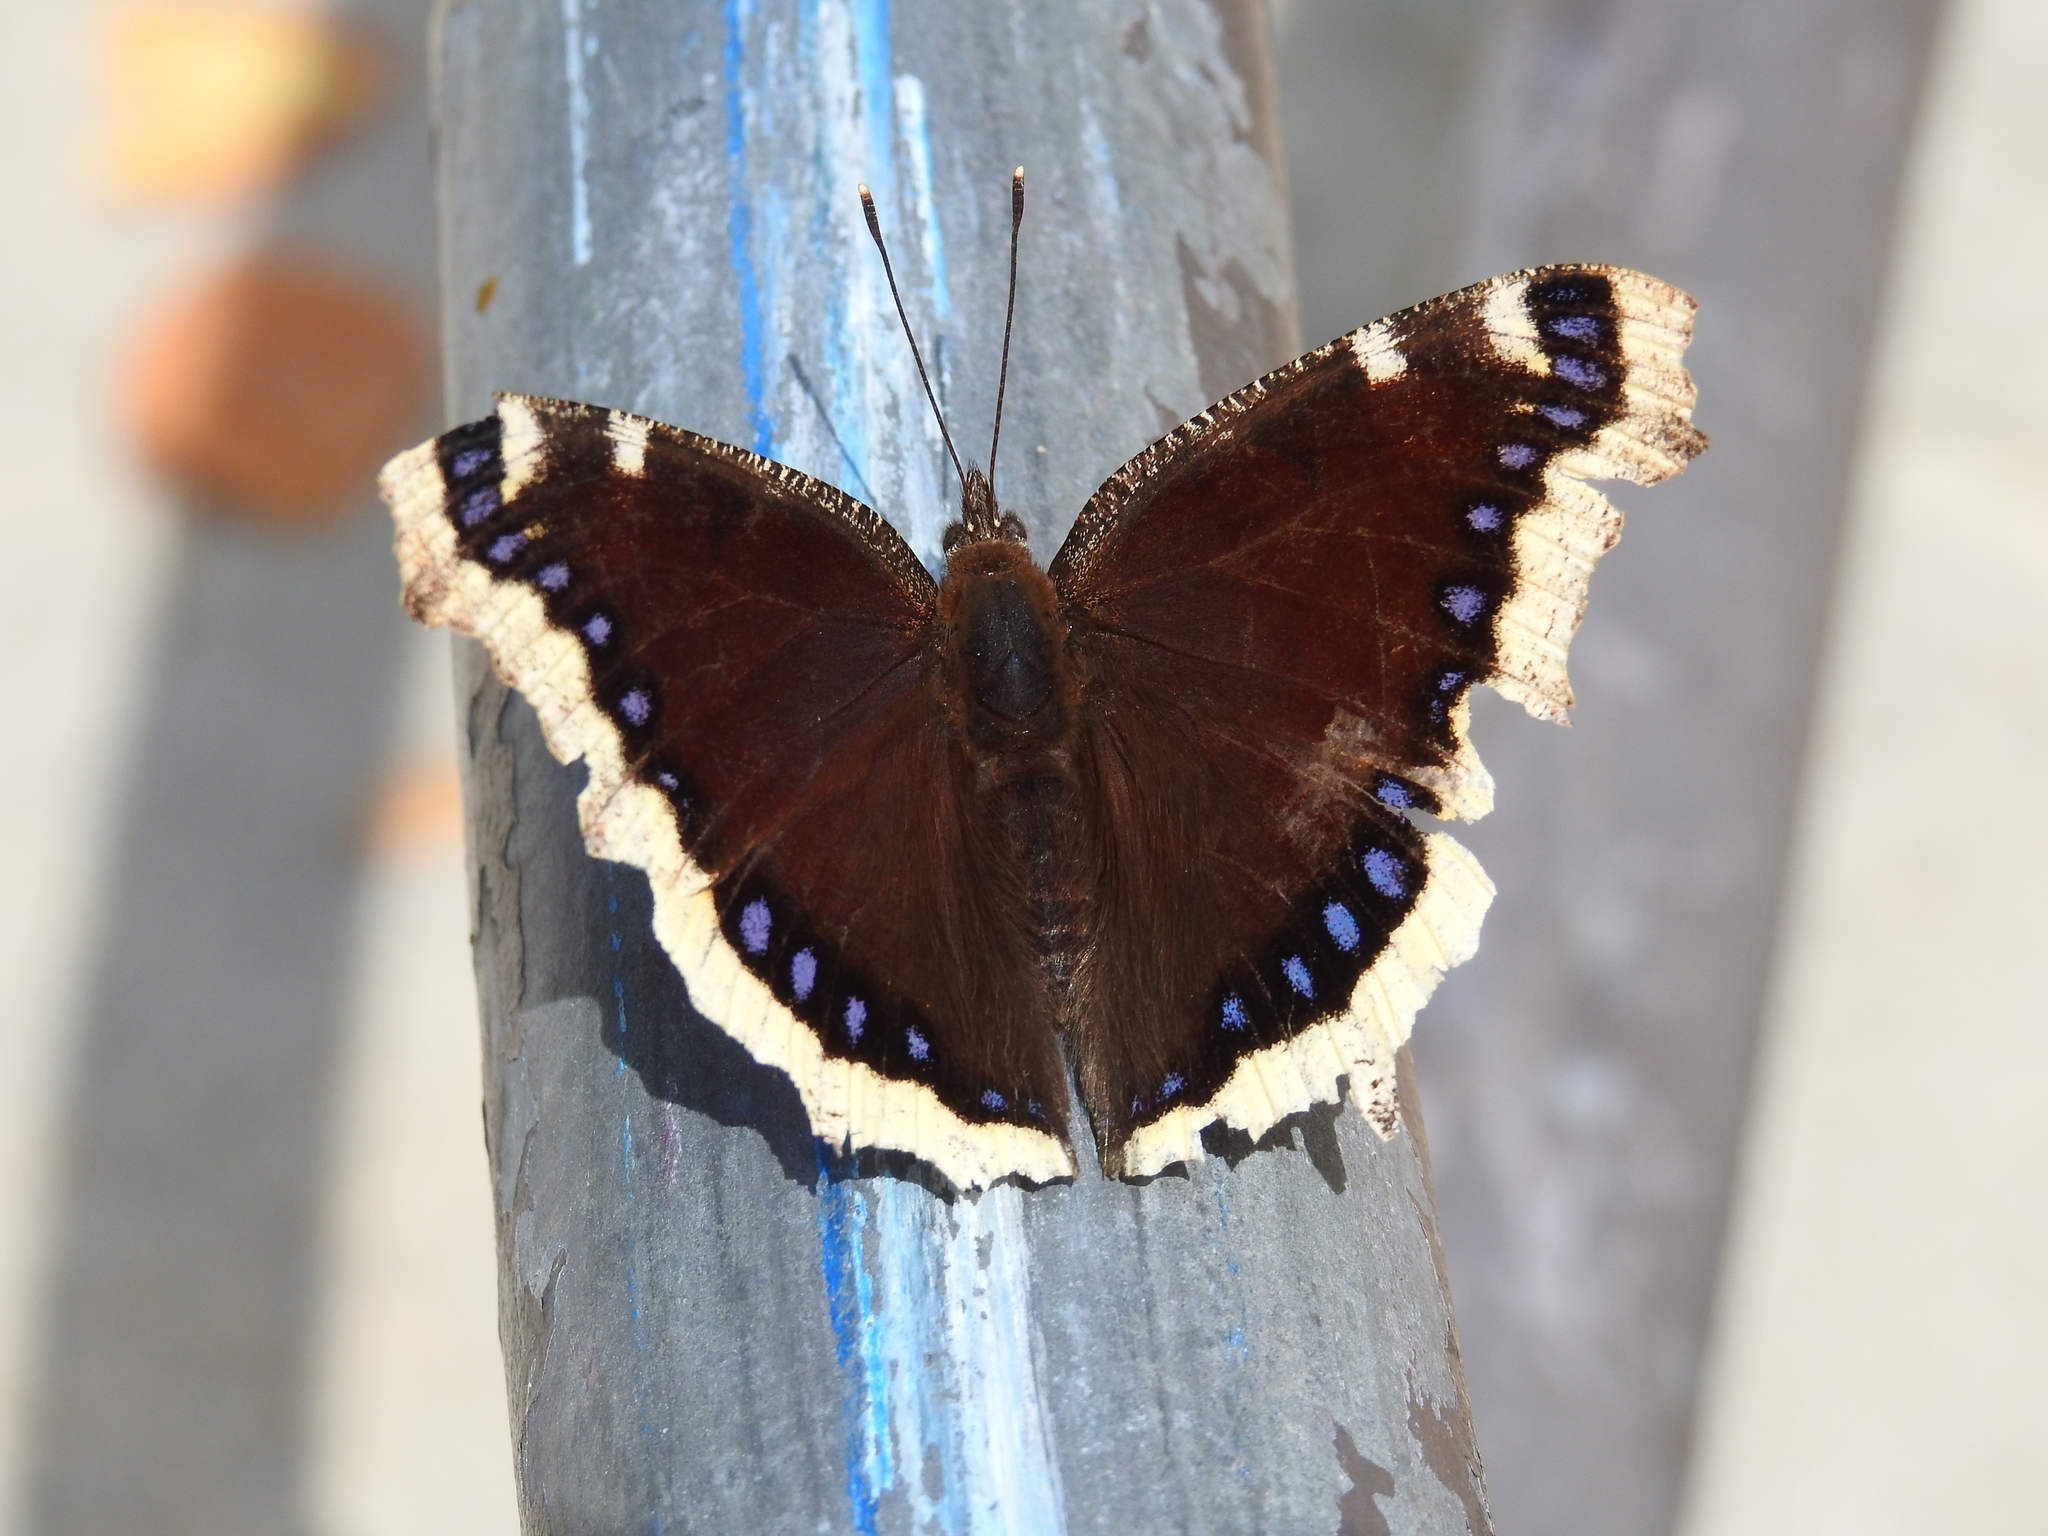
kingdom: Animalia
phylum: Arthropoda
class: Insecta
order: Lepidoptera
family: Nymphalidae
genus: Nymphalis
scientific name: Nymphalis antiopa
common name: Camberwell beauty
